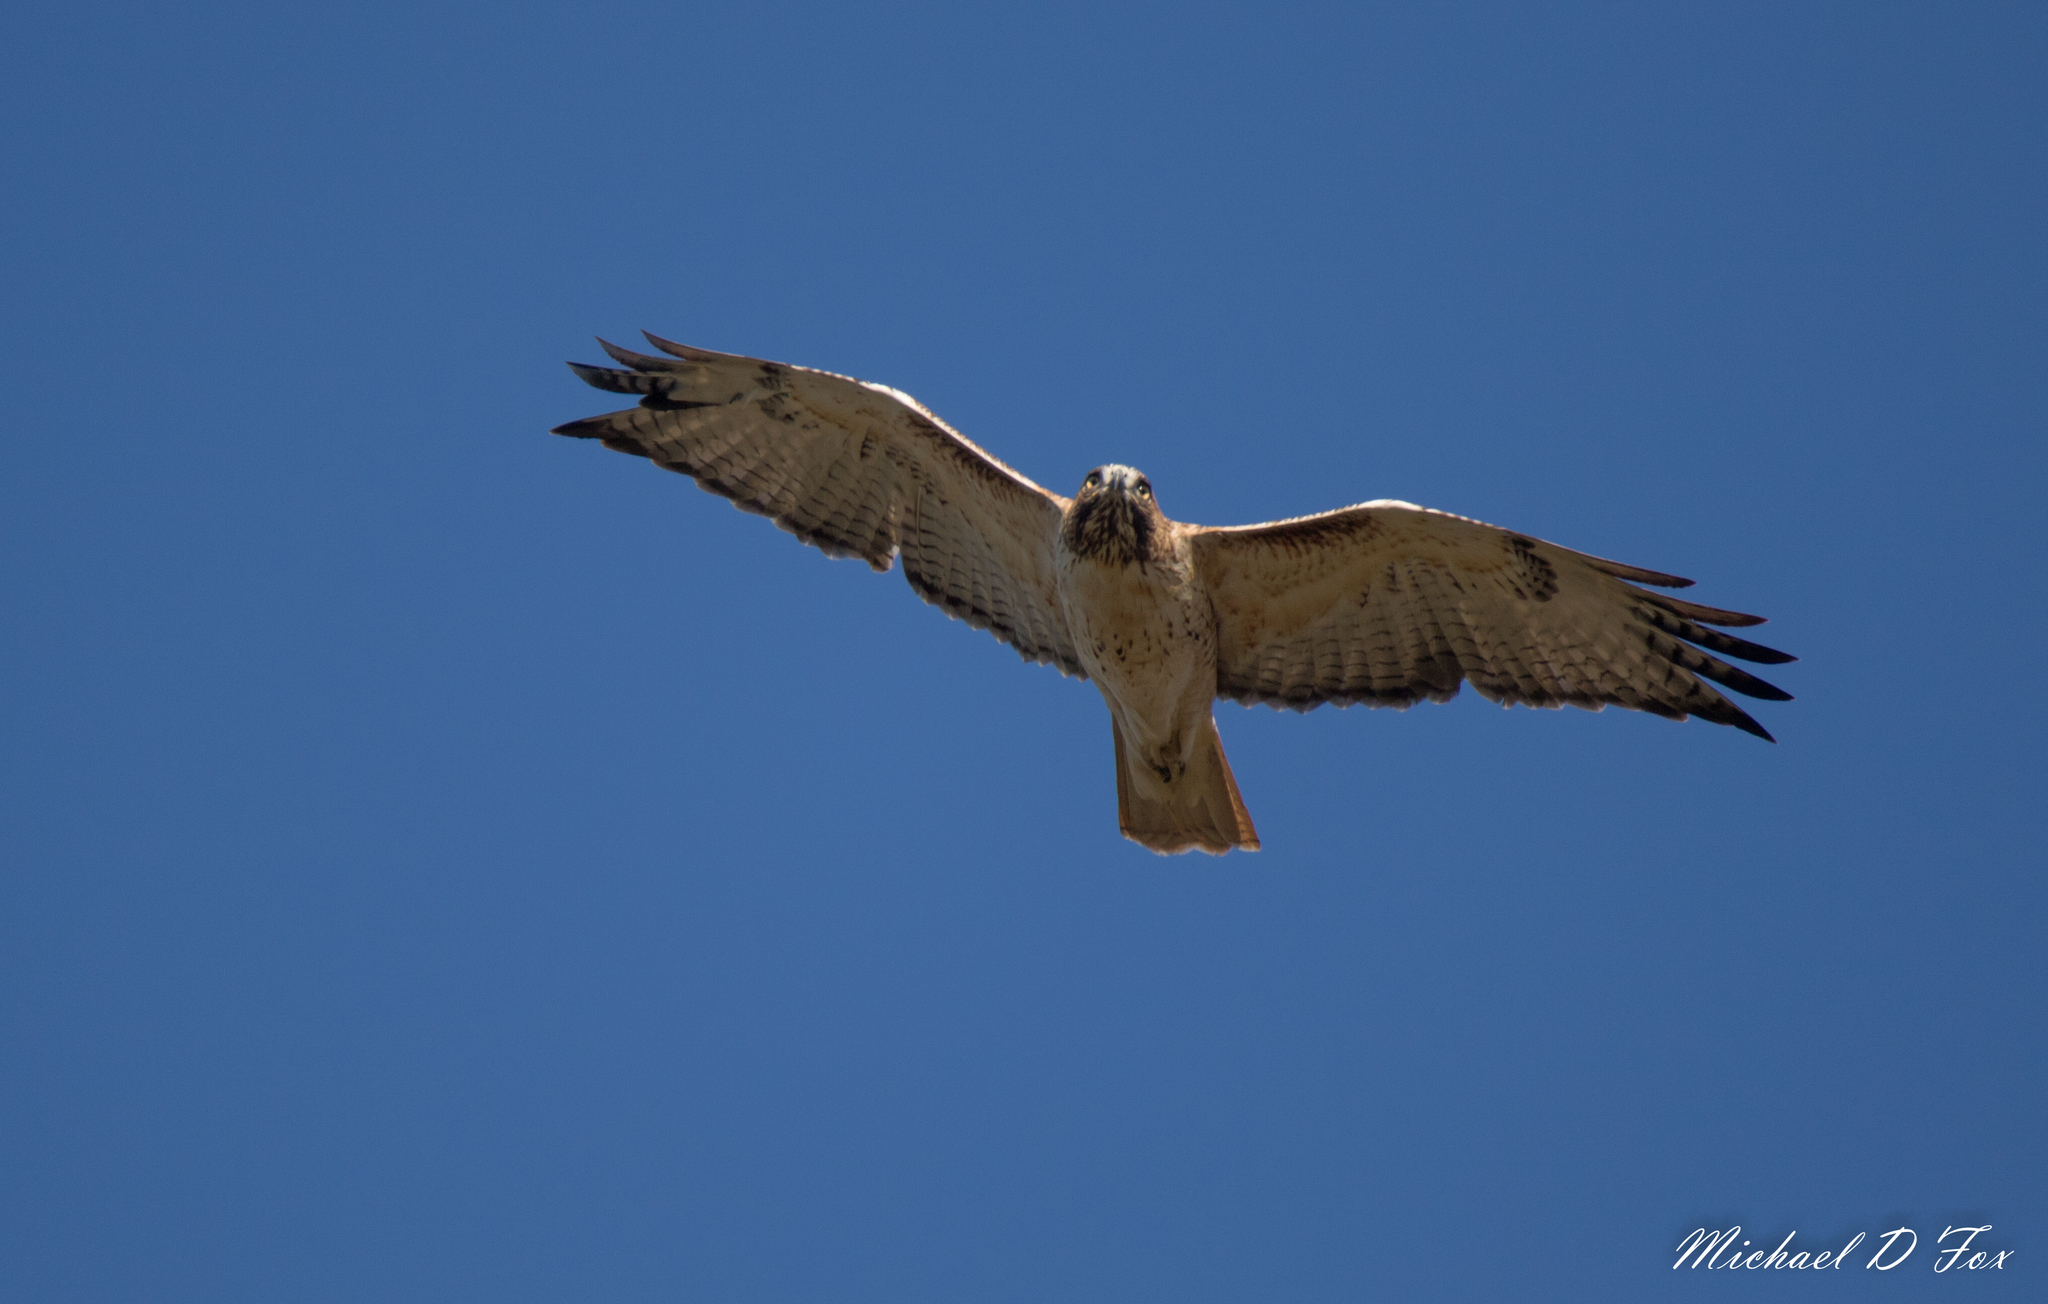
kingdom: Animalia
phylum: Chordata
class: Aves
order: Accipitriformes
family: Accipitridae
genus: Buteo
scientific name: Buteo jamaicensis
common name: Red-tailed hawk
